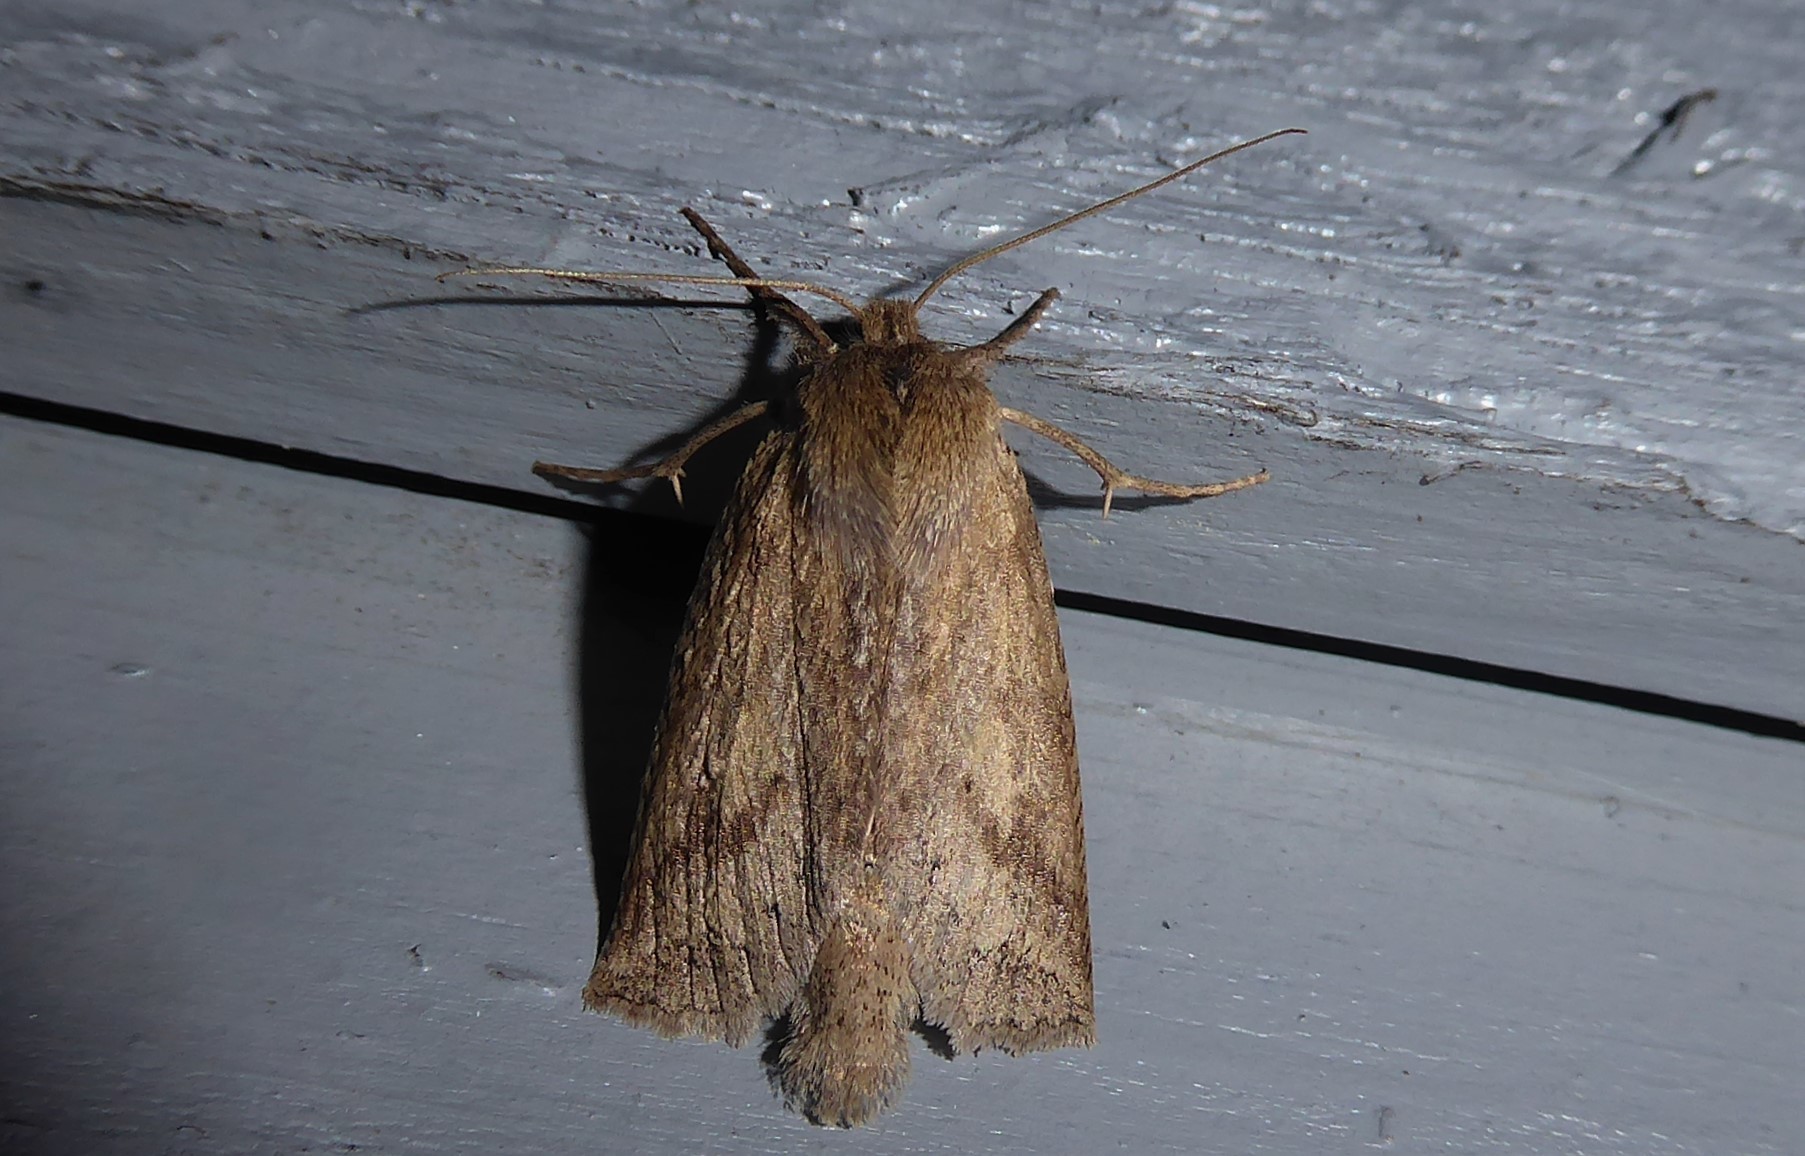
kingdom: Animalia
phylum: Arthropoda
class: Insecta
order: Lepidoptera
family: Geometridae
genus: Declana
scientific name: Declana leptomera
